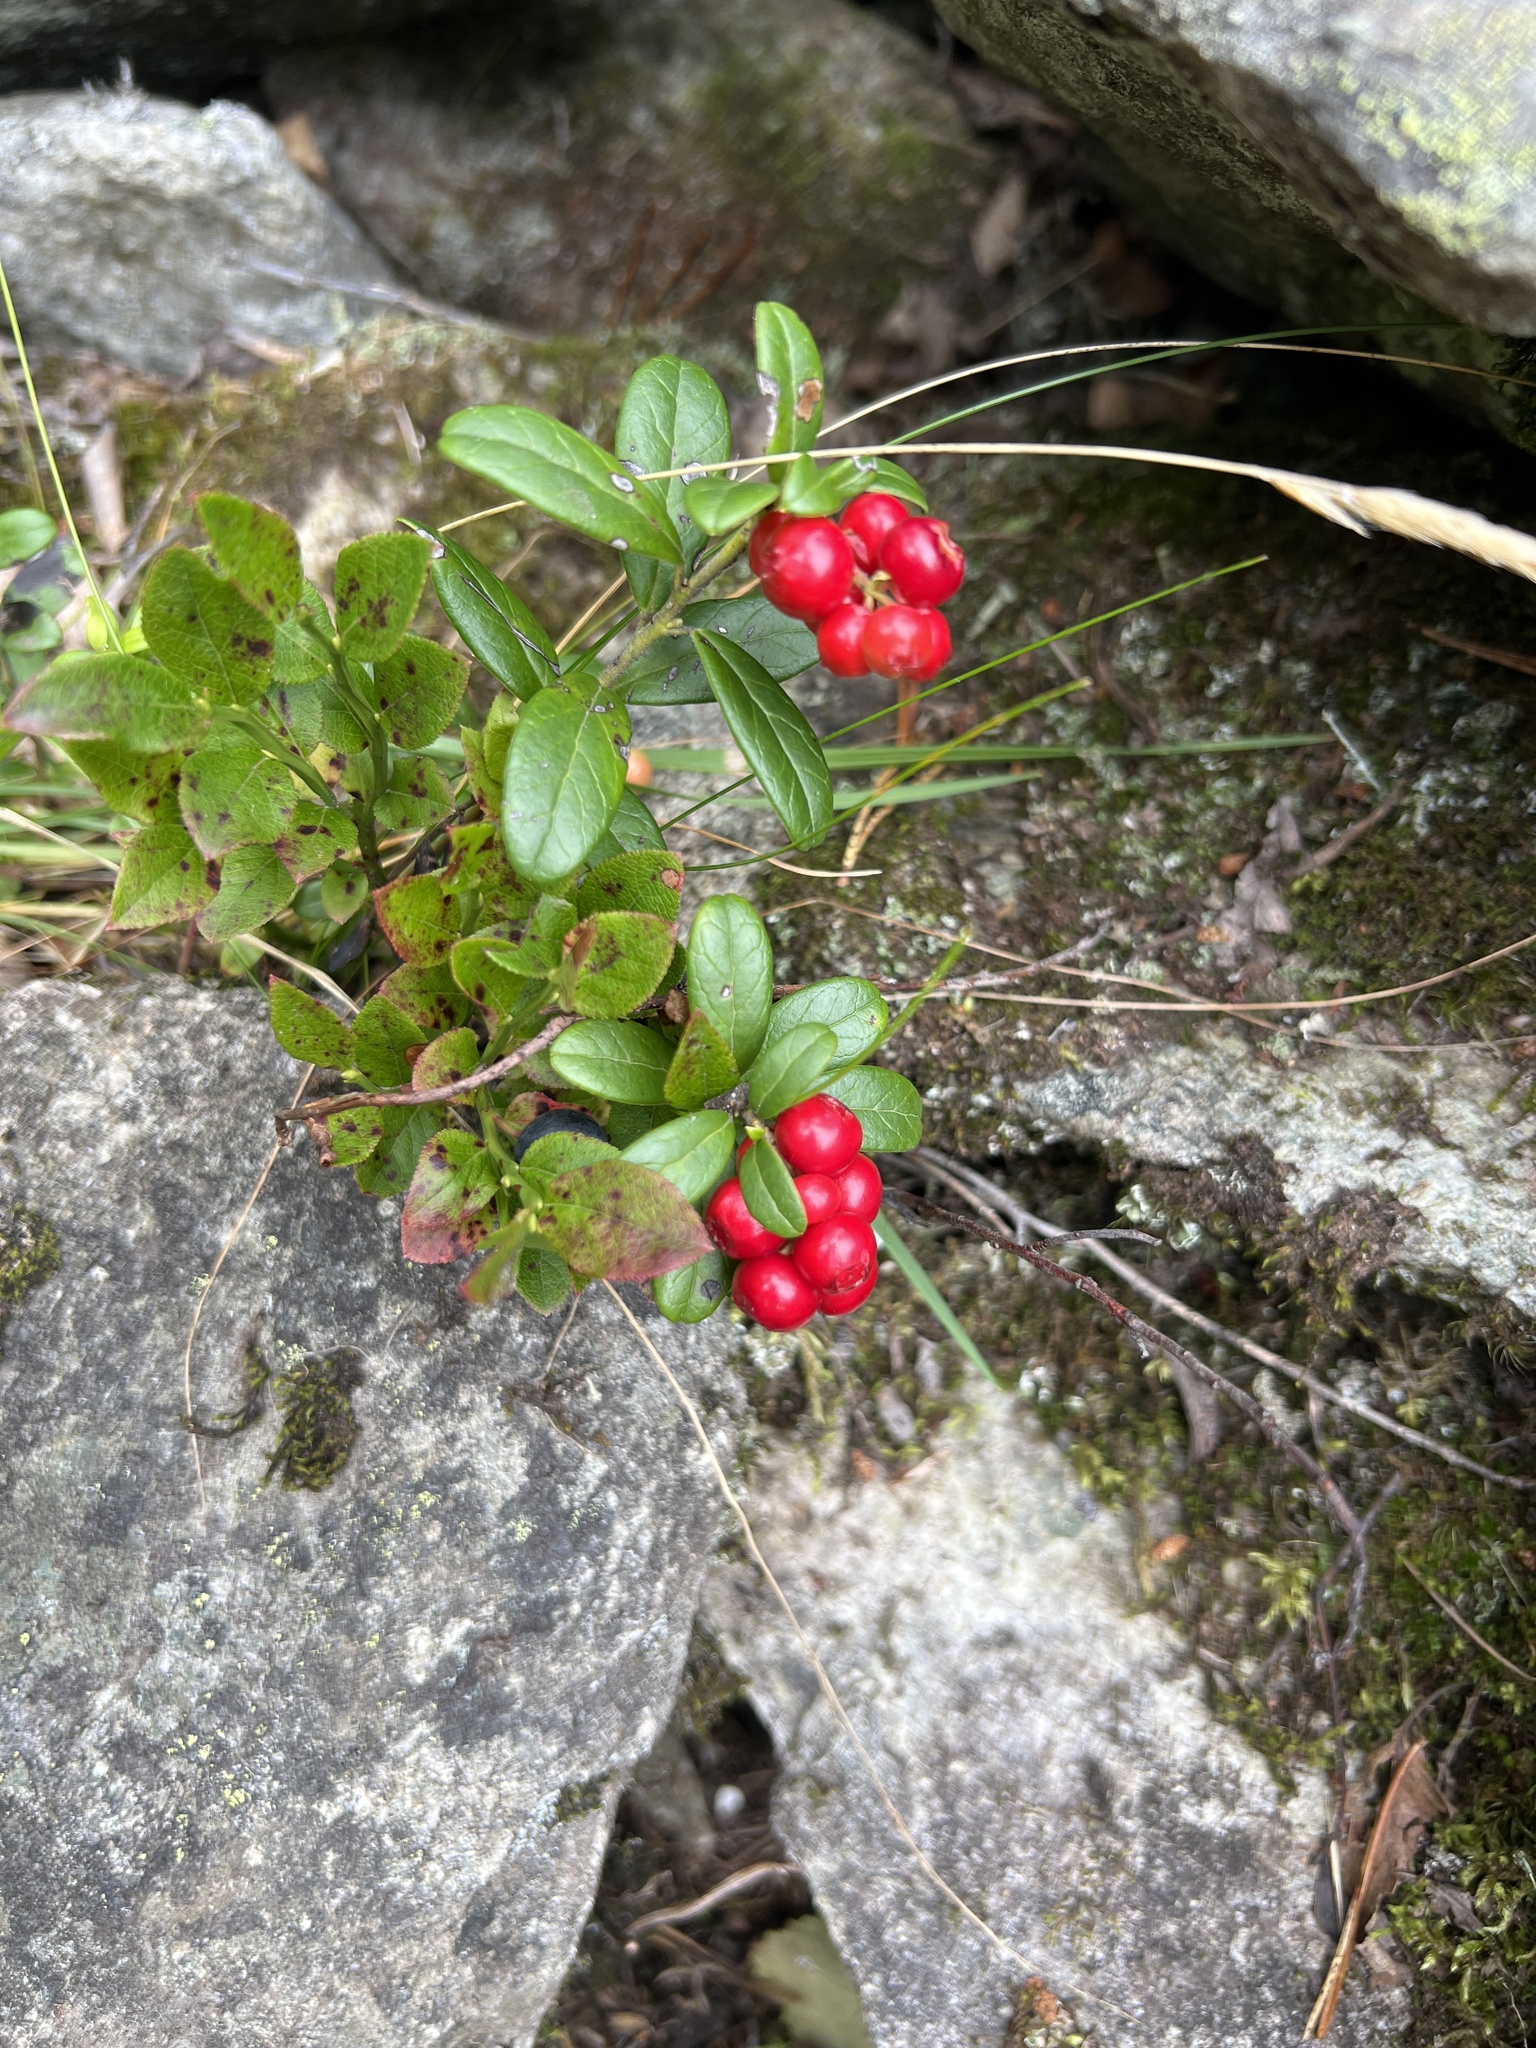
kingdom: Plantae
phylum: Tracheophyta
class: Magnoliopsida
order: Ericales
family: Ericaceae
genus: Vaccinium
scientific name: Vaccinium vitis-idaea
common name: Cowberry
